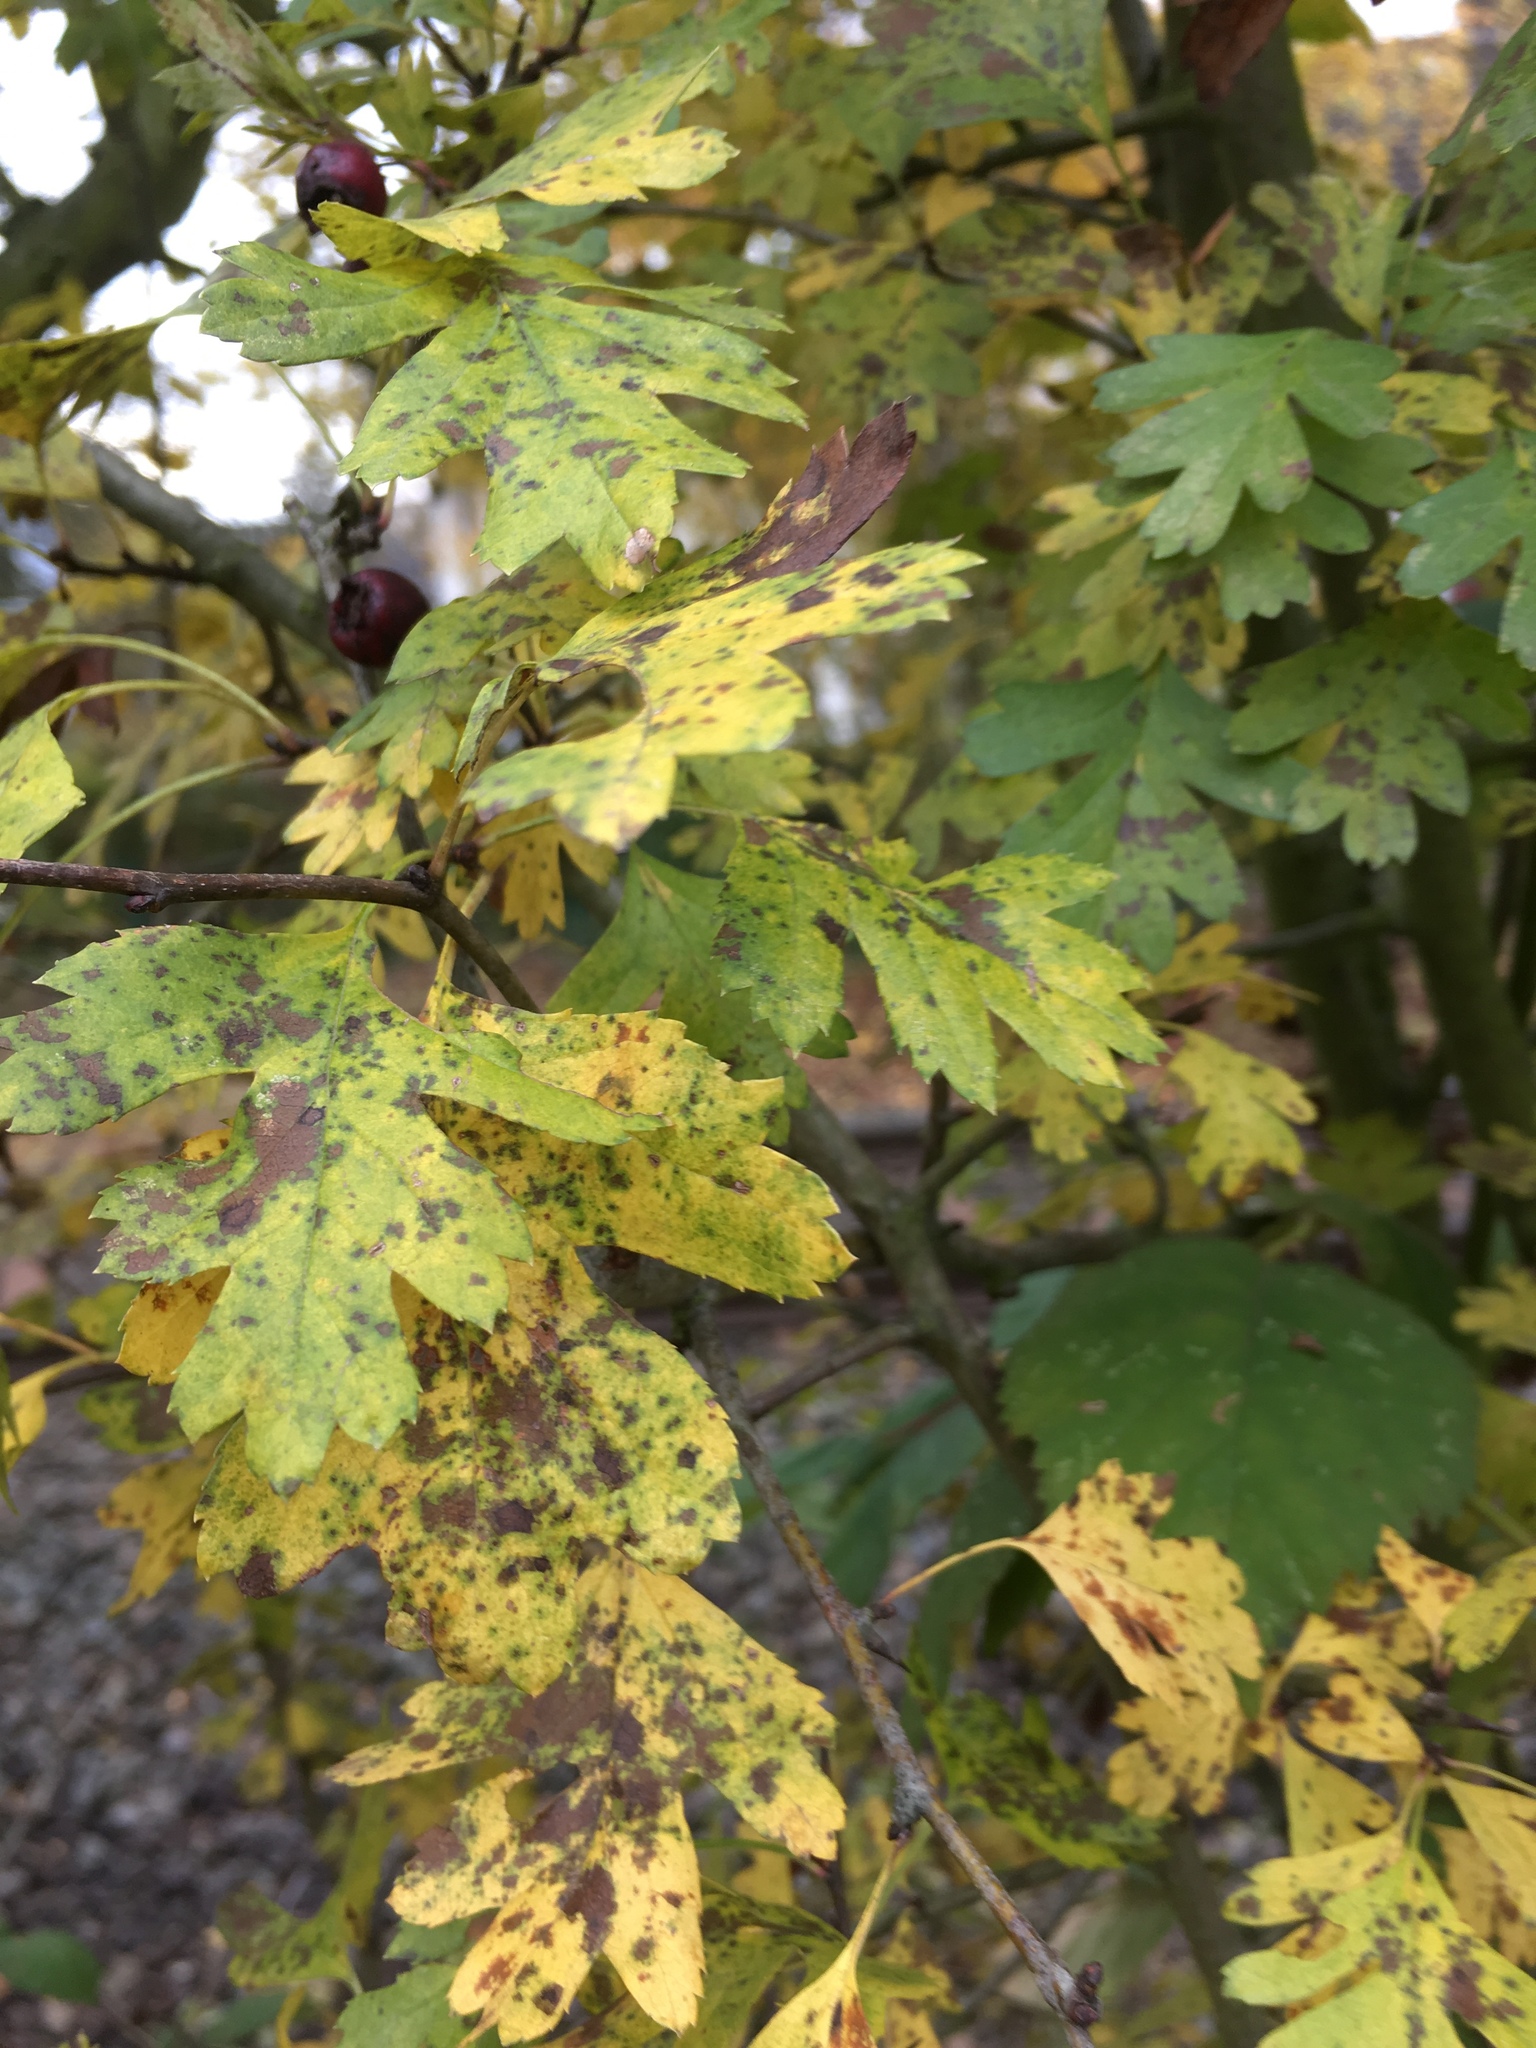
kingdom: Plantae
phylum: Tracheophyta
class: Magnoliopsida
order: Rosales
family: Rosaceae
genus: Crataegus
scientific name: Crataegus monogyna
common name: Hawthorn
